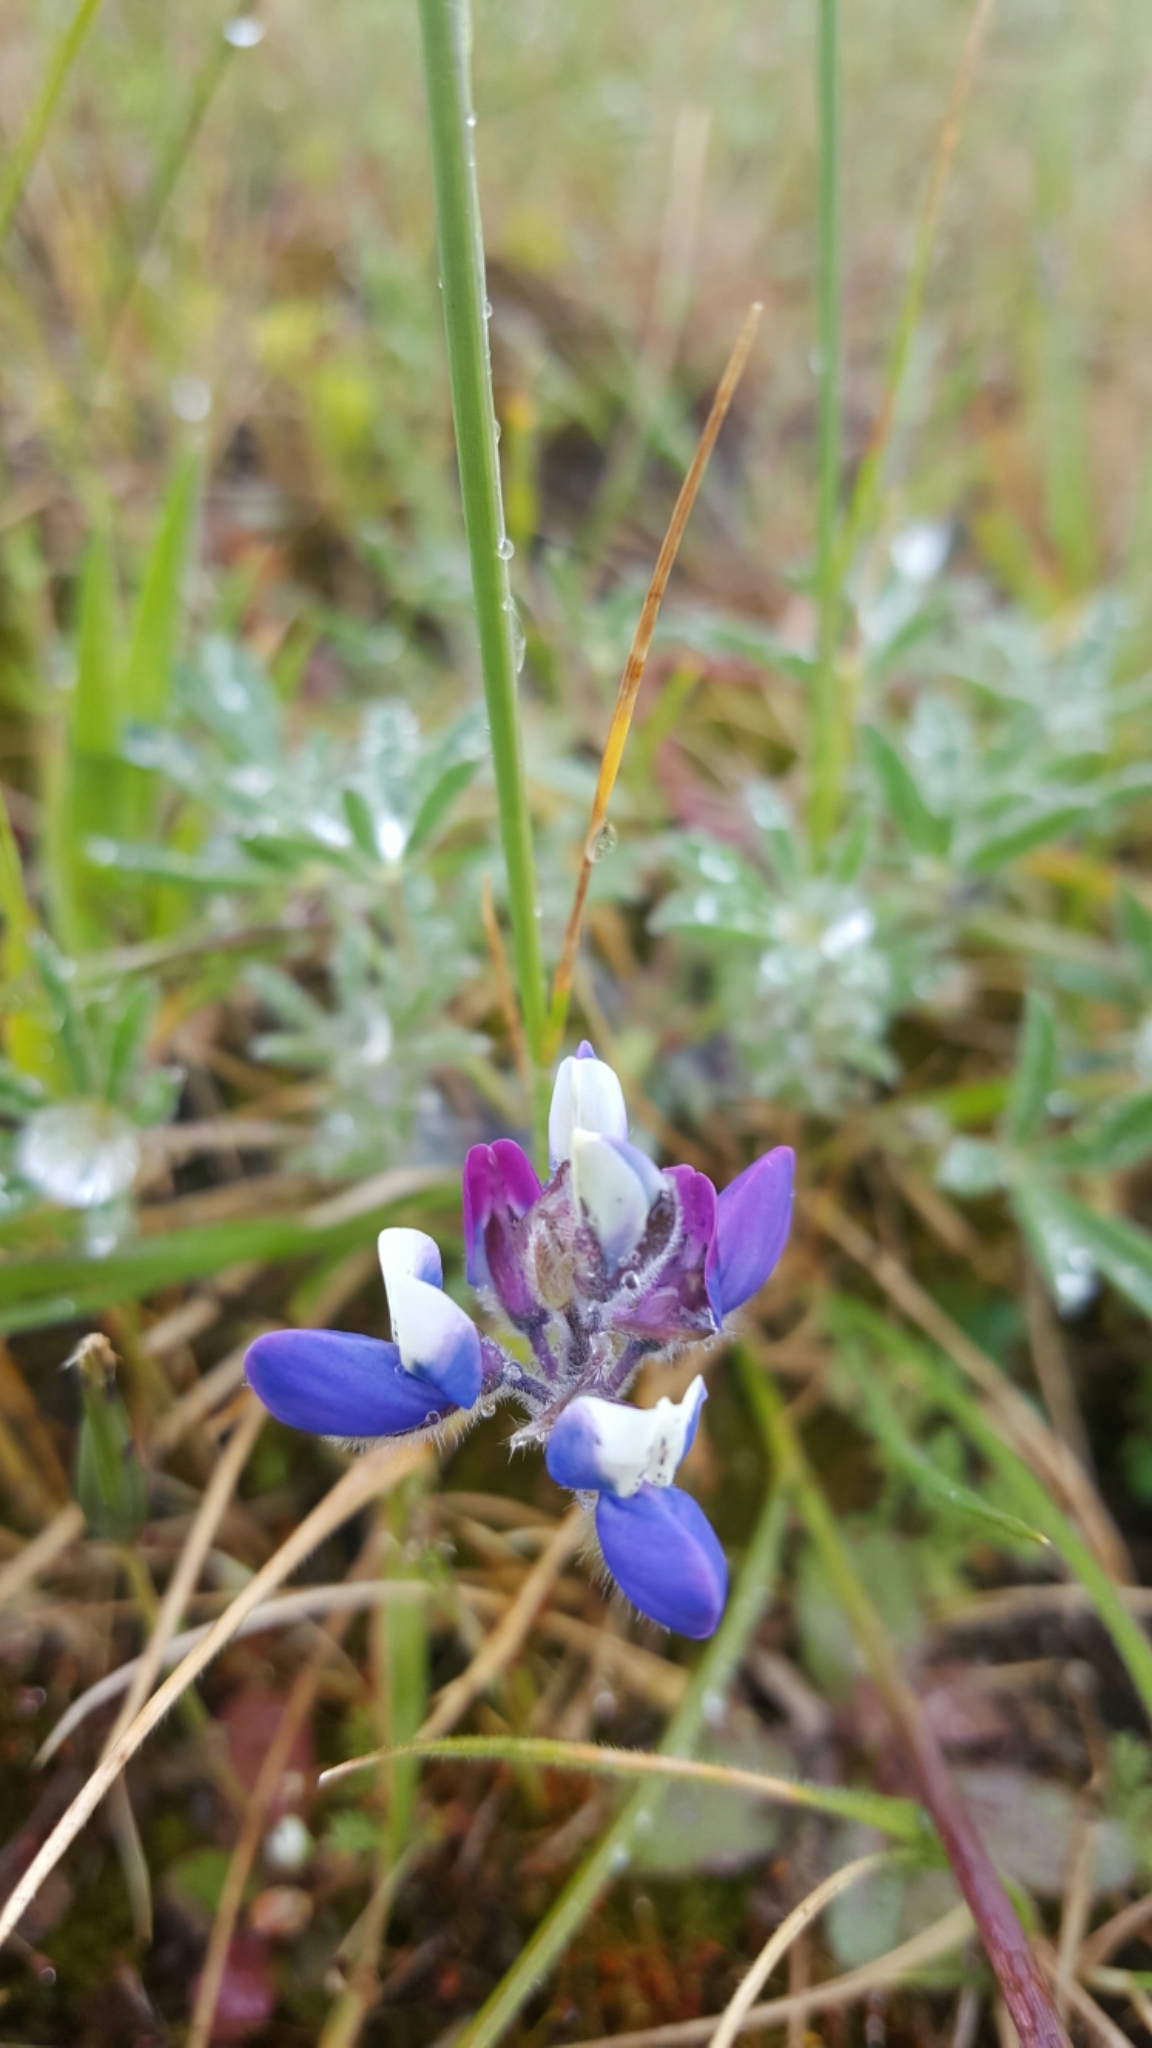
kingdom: Plantae
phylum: Tracheophyta
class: Magnoliopsida
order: Fabales
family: Fabaceae
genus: Lupinus
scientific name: Lupinus bicolor
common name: Miniature lupine
